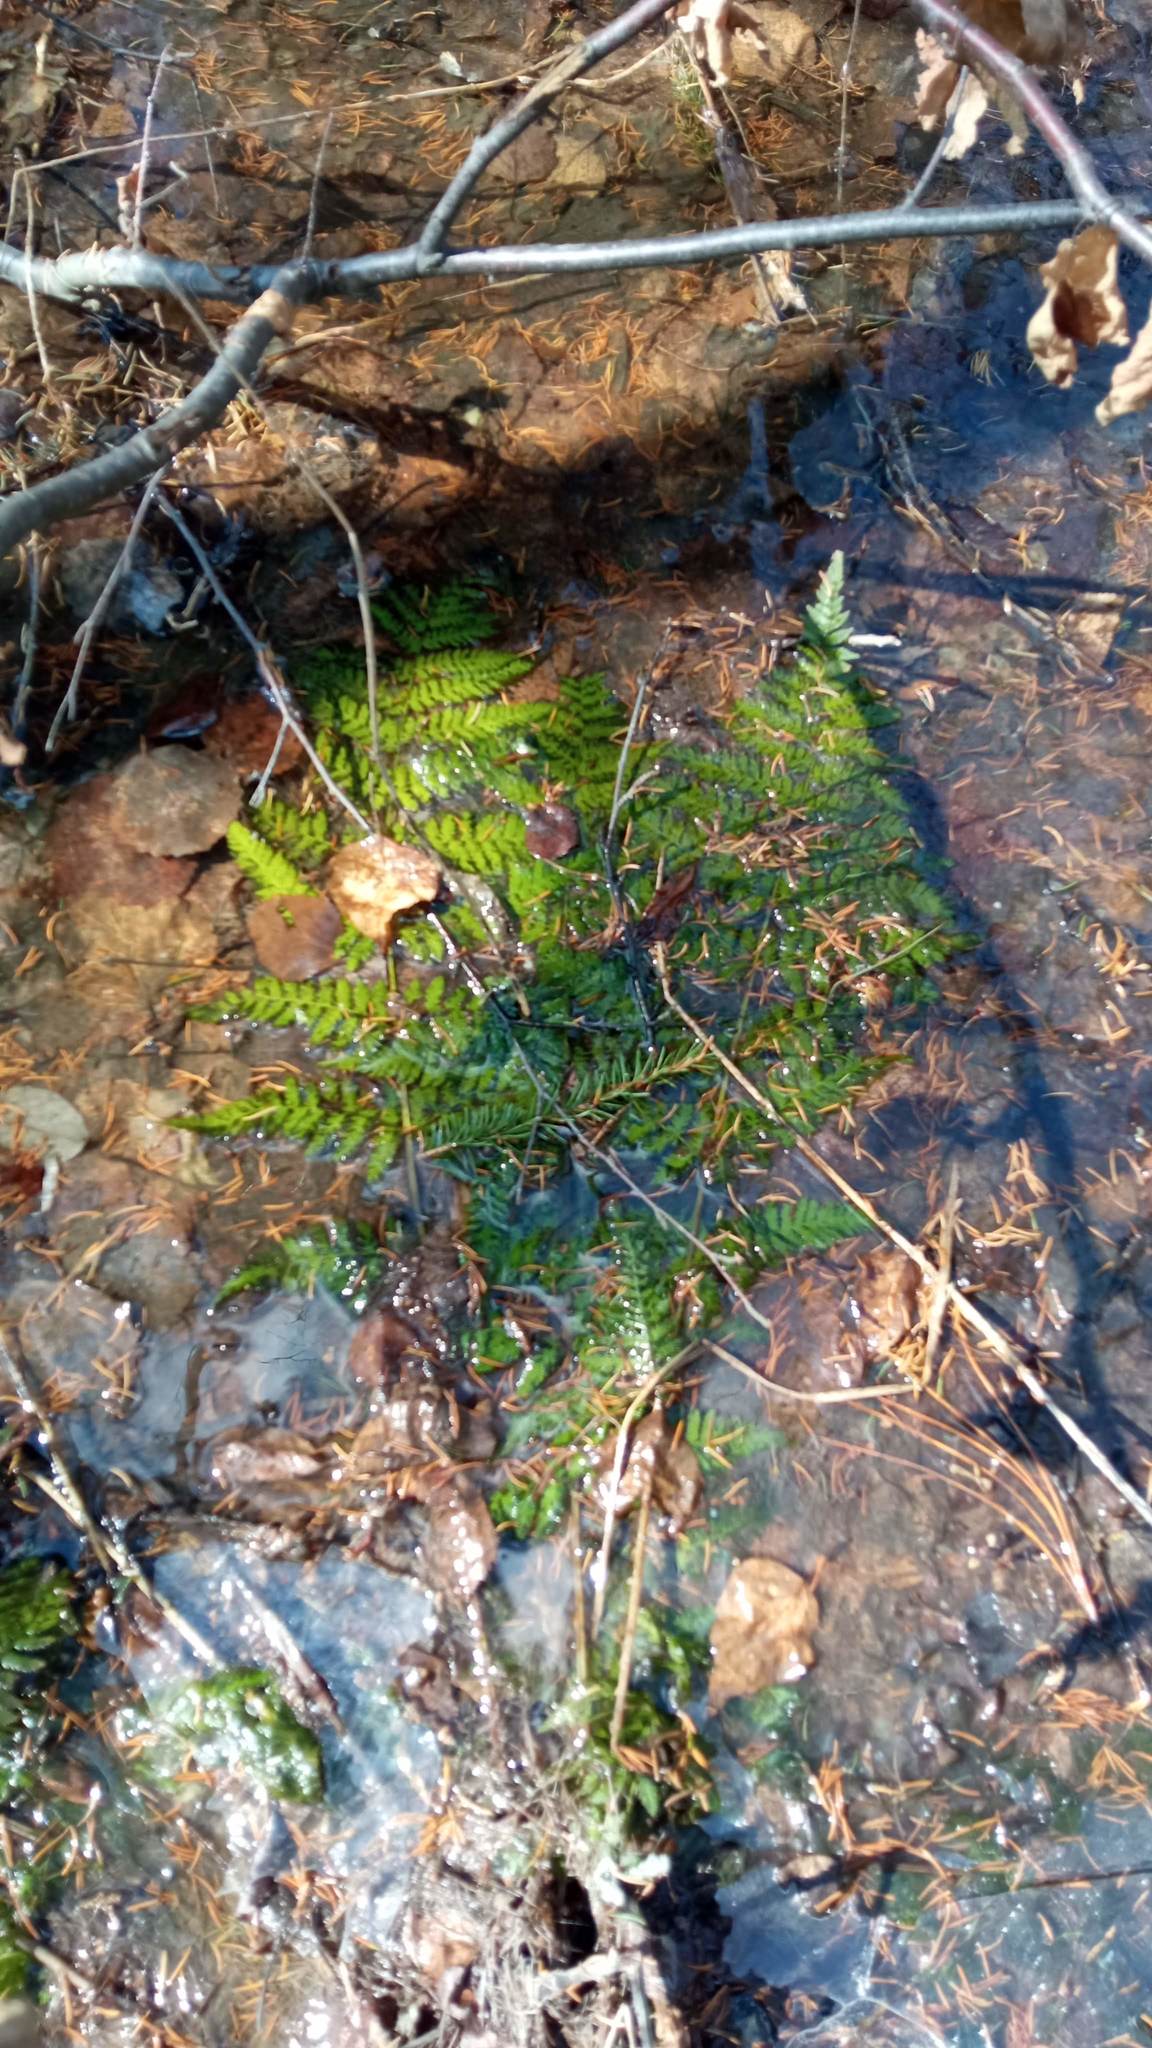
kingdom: Plantae
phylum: Tracheophyta
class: Polypodiopsida
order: Polypodiales
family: Dryopteridaceae
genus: Dryopteris
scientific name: Dryopteris carthusiana
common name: Narrow buckler-fern
